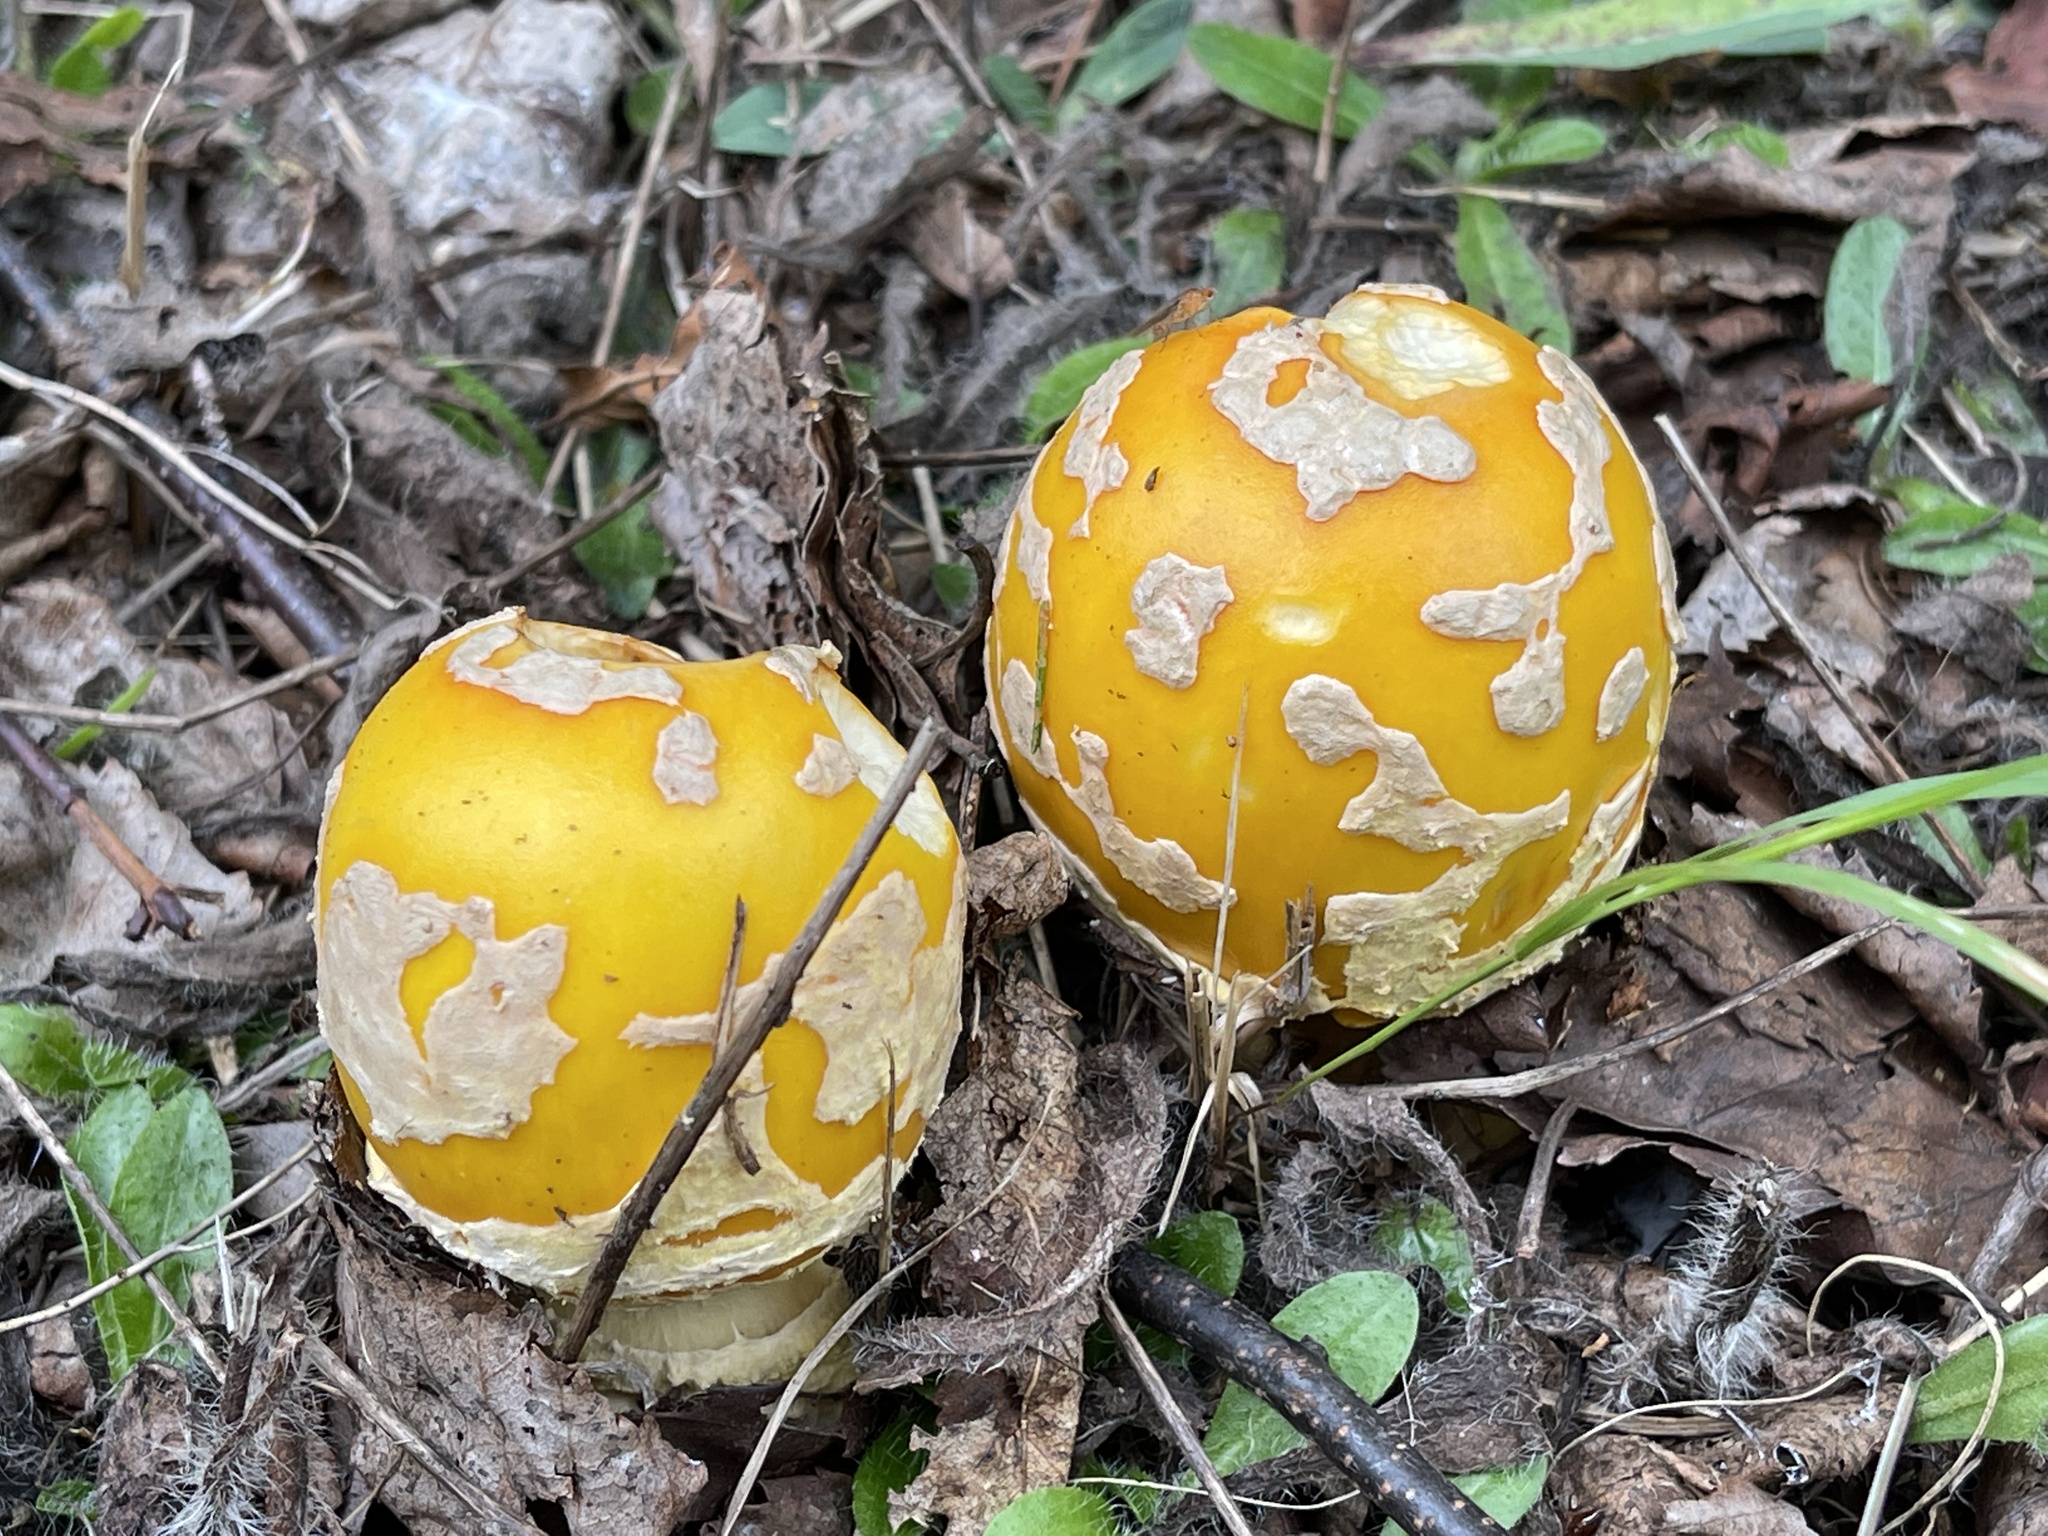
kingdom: Fungi
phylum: Basidiomycota
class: Agaricomycetes
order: Agaricales
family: Amanitaceae
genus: Amanita
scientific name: Amanita muscaria
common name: Fly agaric
